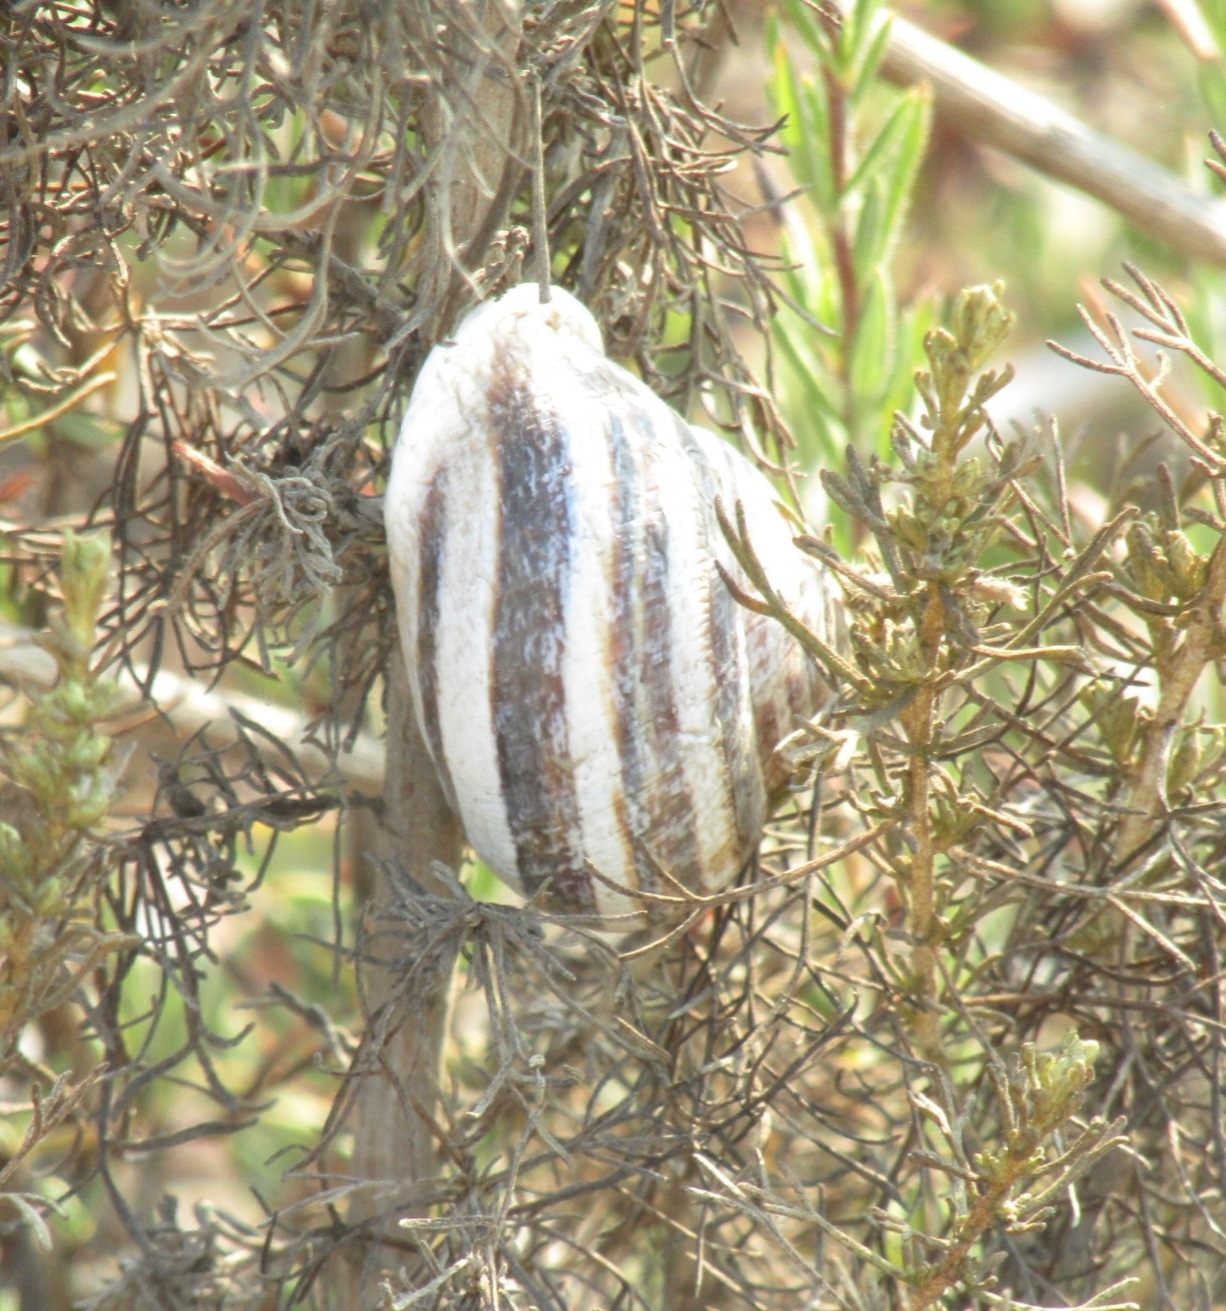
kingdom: Animalia
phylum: Mollusca
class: Gastropoda
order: Stylommatophora
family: Helicidae
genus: Otala
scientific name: Otala lactea
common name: Milk snail
